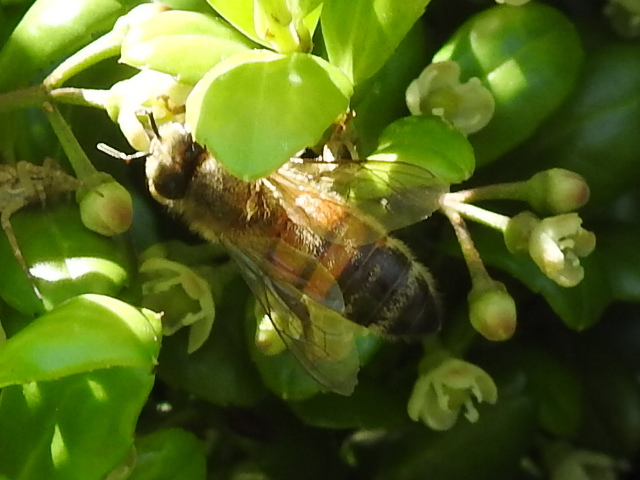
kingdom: Animalia
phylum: Arthropoda
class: Insecta
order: Hymenoptera
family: Apidae
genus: Apis
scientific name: Apis mellifera
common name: Honey bee
